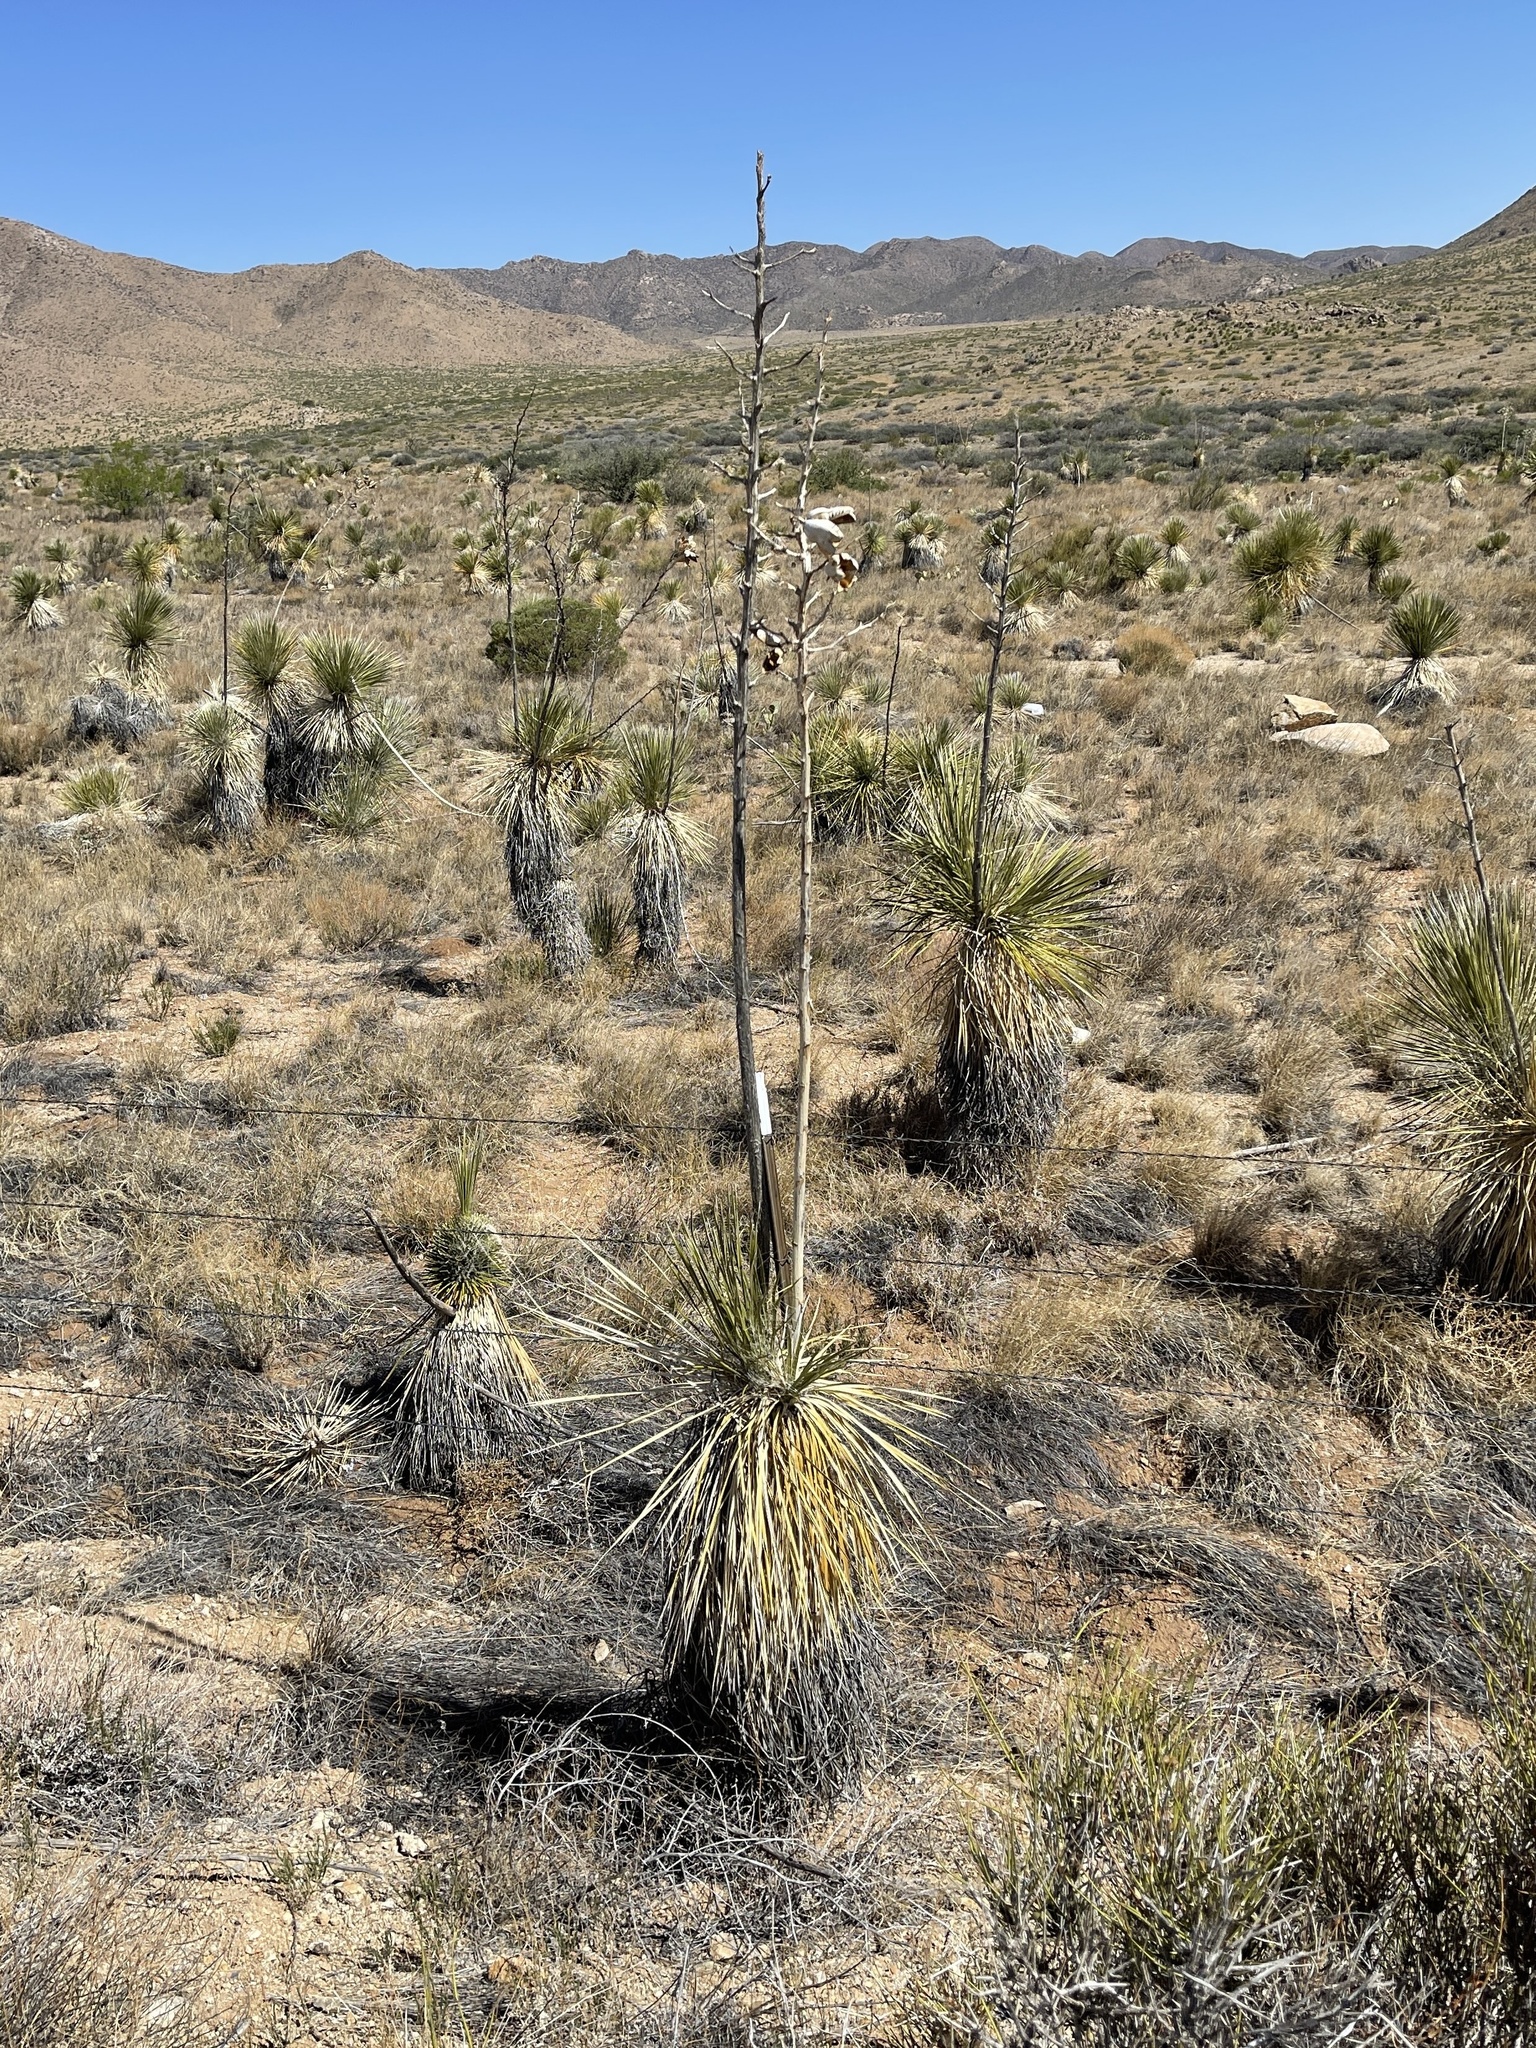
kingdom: Plantae
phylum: Tracheophyta
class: Liliopsida
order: Asparagales
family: Asparagaceae
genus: Yucca
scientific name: Yucca elata
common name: Palmella
